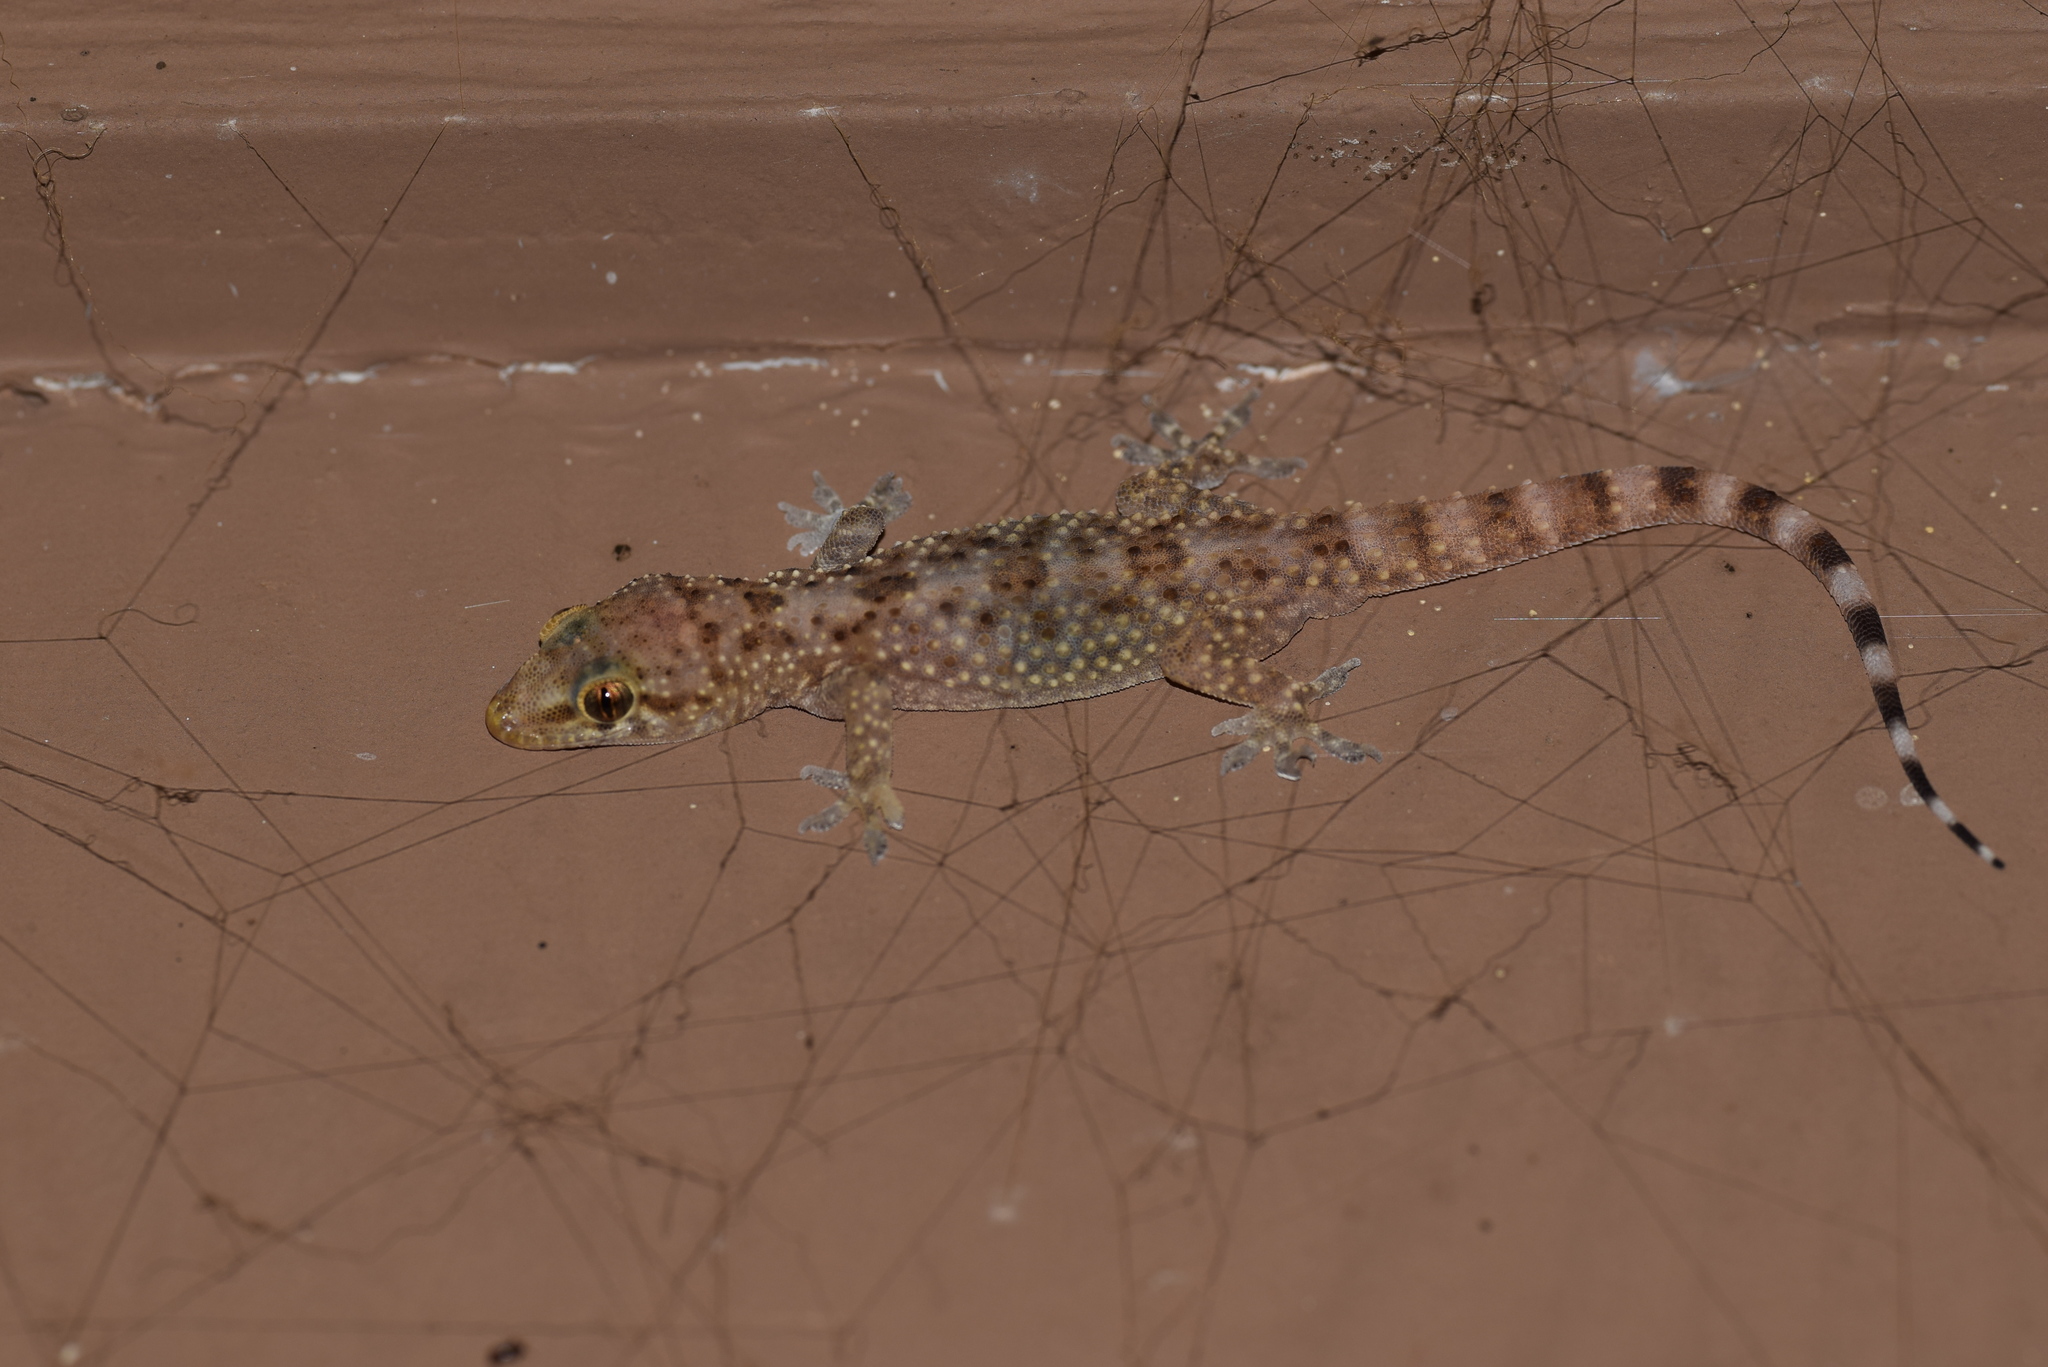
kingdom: Animalia
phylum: Chordata
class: Squamata
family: Gekkonidae
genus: Hemidactylus
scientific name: Hemidactylus turcicus
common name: Turkish gecko
